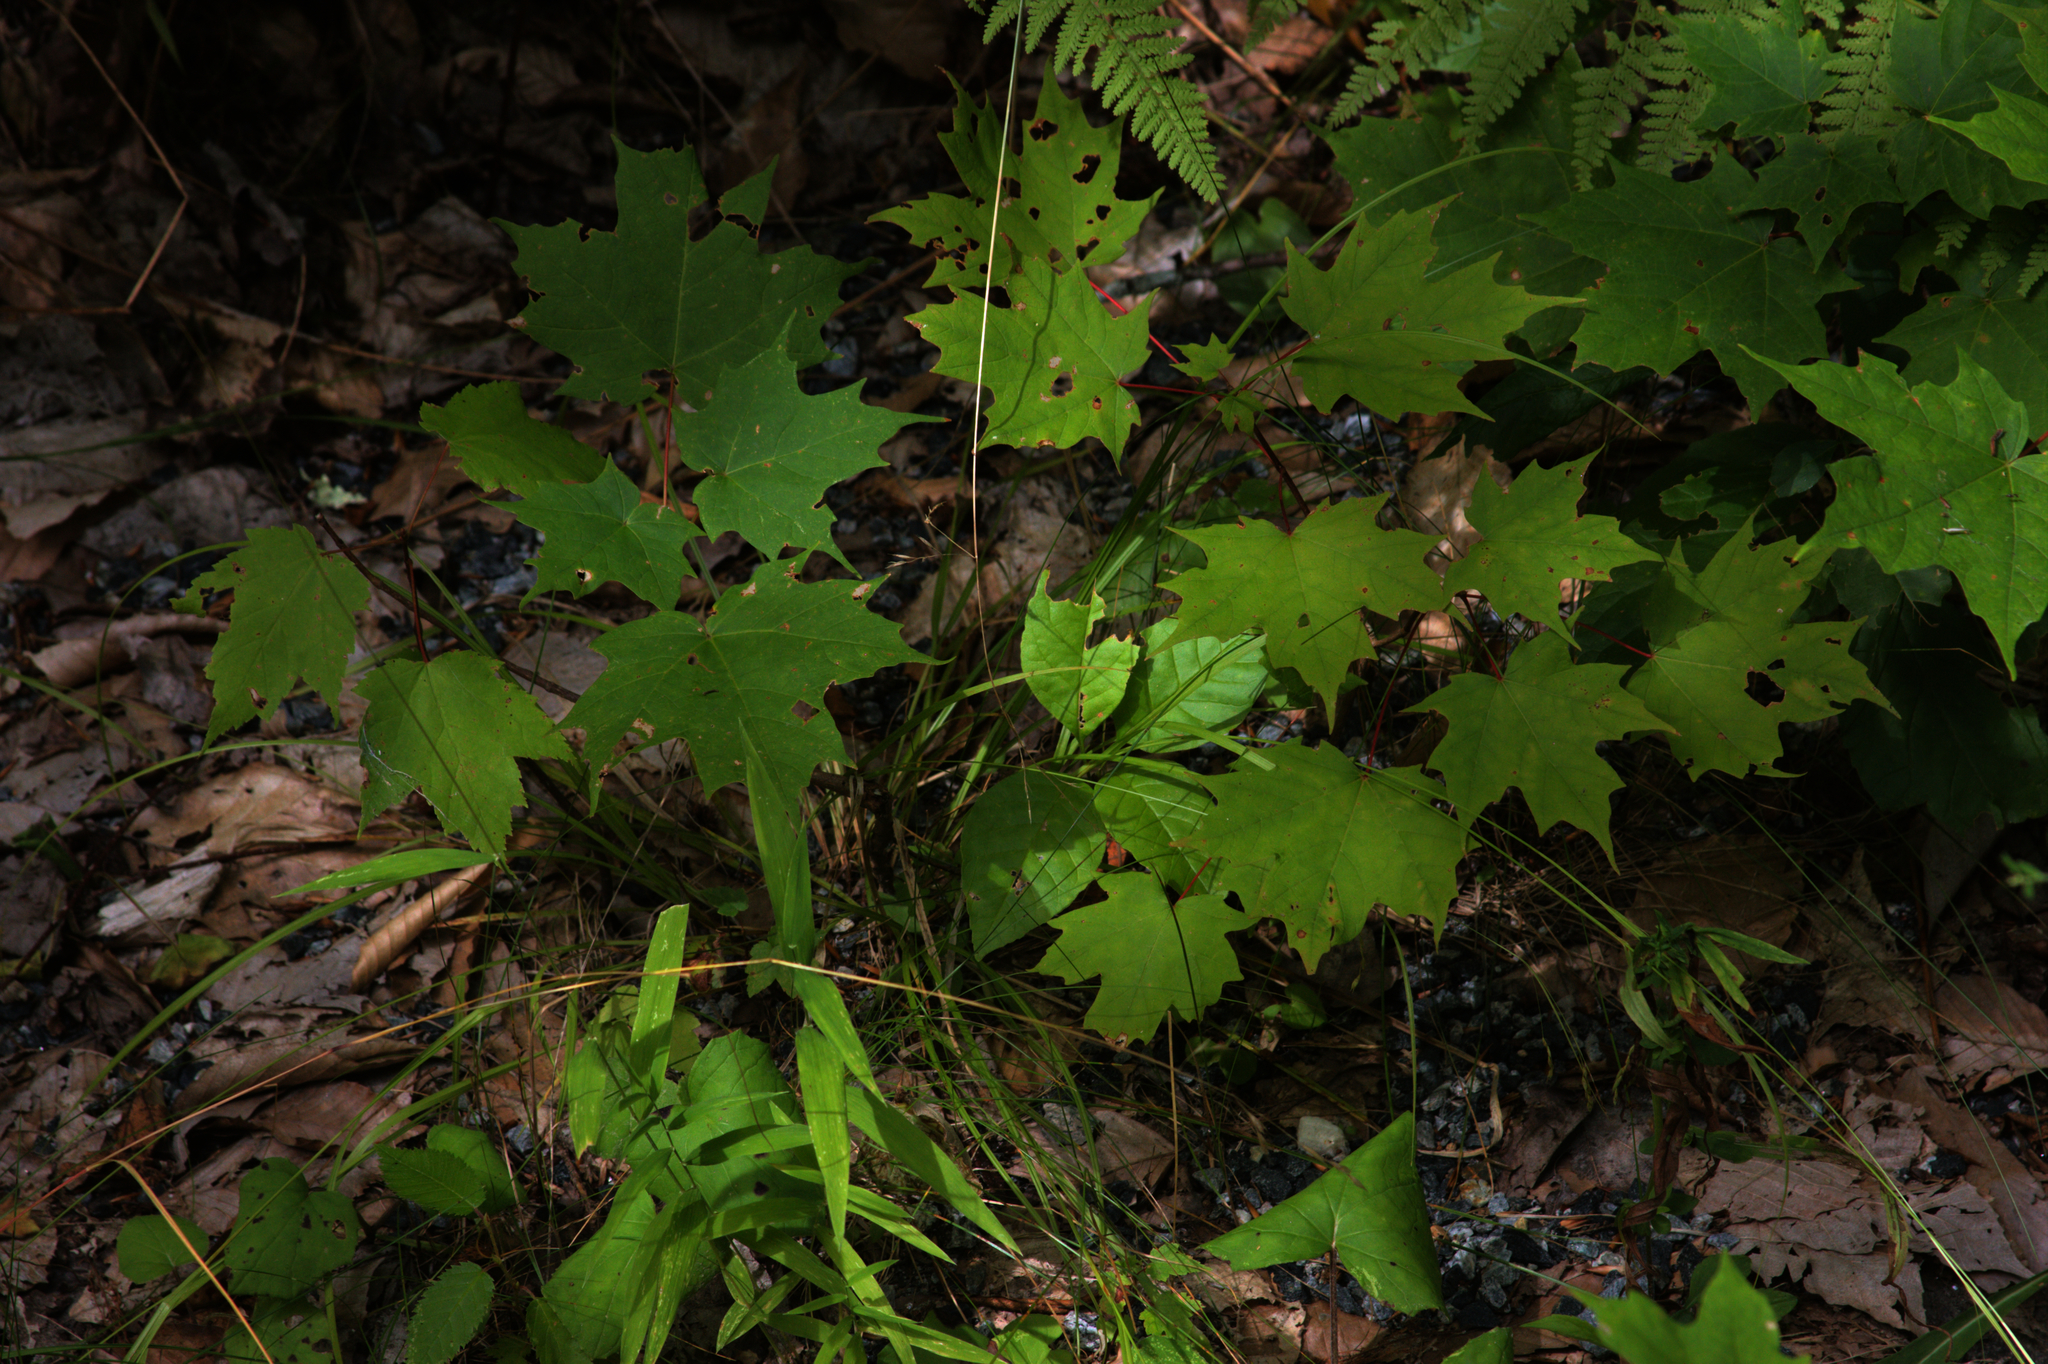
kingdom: Plantae
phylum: Tracheophyta
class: Magnoliopsida
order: Sapindales
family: Sapindaceae
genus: Acer
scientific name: Acer saccharum
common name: Sugar maple
